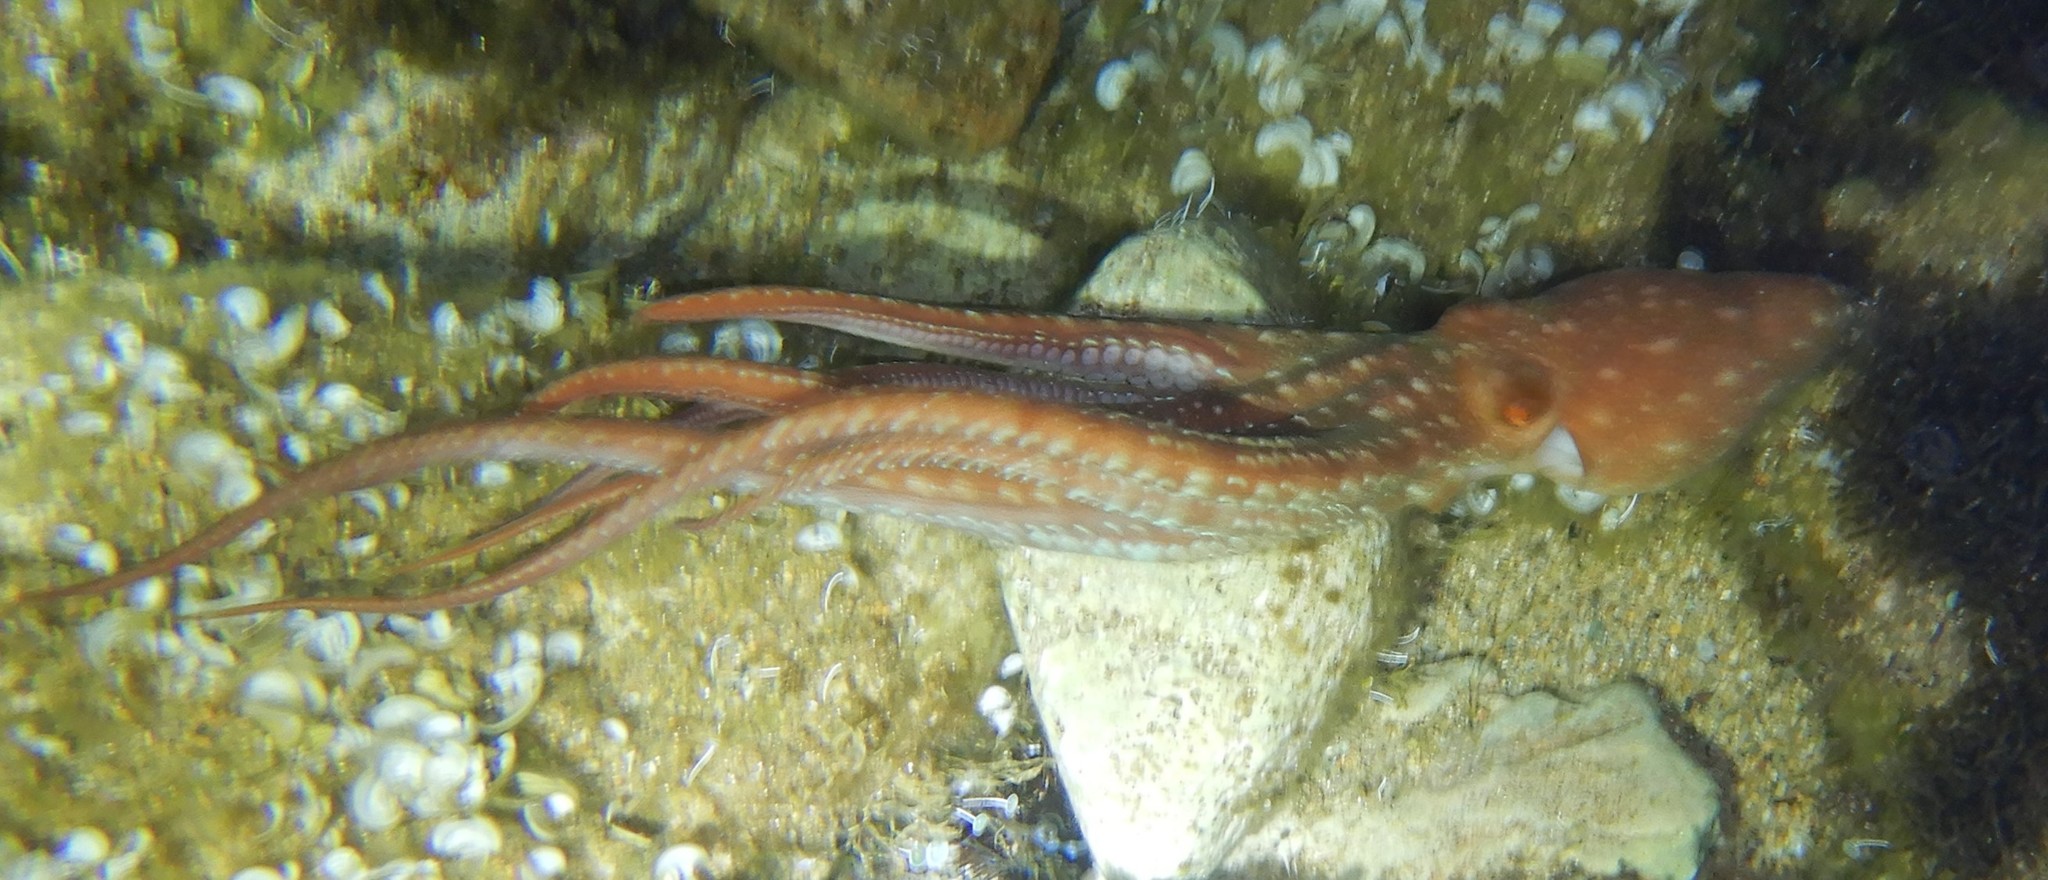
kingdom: Animalia
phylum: Mollusca
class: Cephalopoda
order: Octopoda
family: Octopodidae
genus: Callistoctopus
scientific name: Callistoctopus macropus
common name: Atlantic white-spotted octopus
